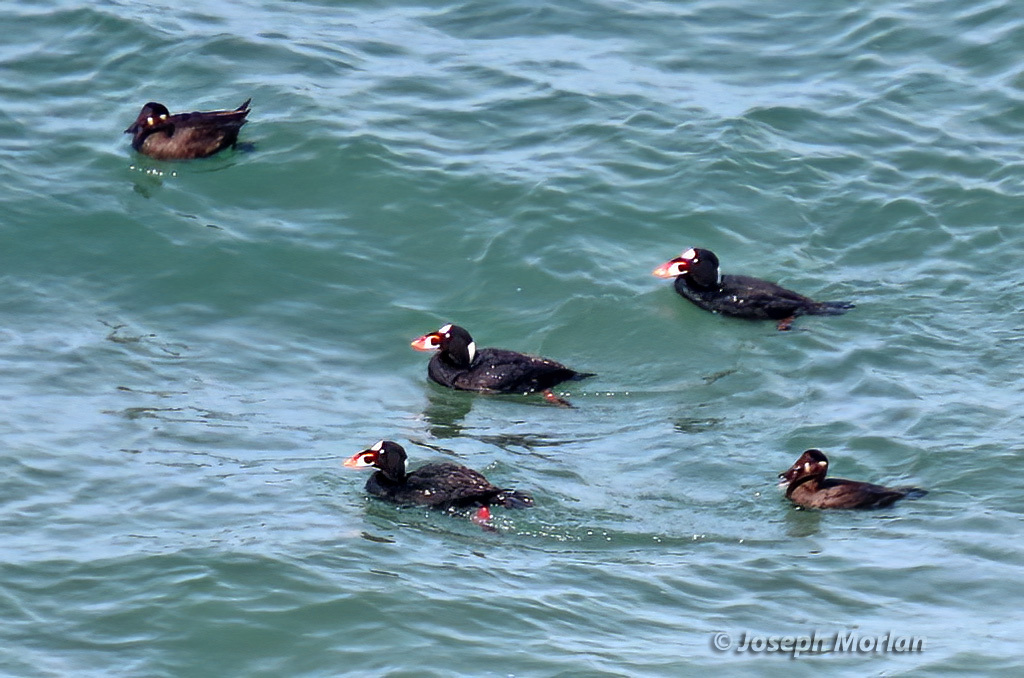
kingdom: Animalia
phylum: Chordata
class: Aves
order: Anseriformes
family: Anatidae
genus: Melanitta
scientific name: Melanitta perspicillata
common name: Surf scoter
